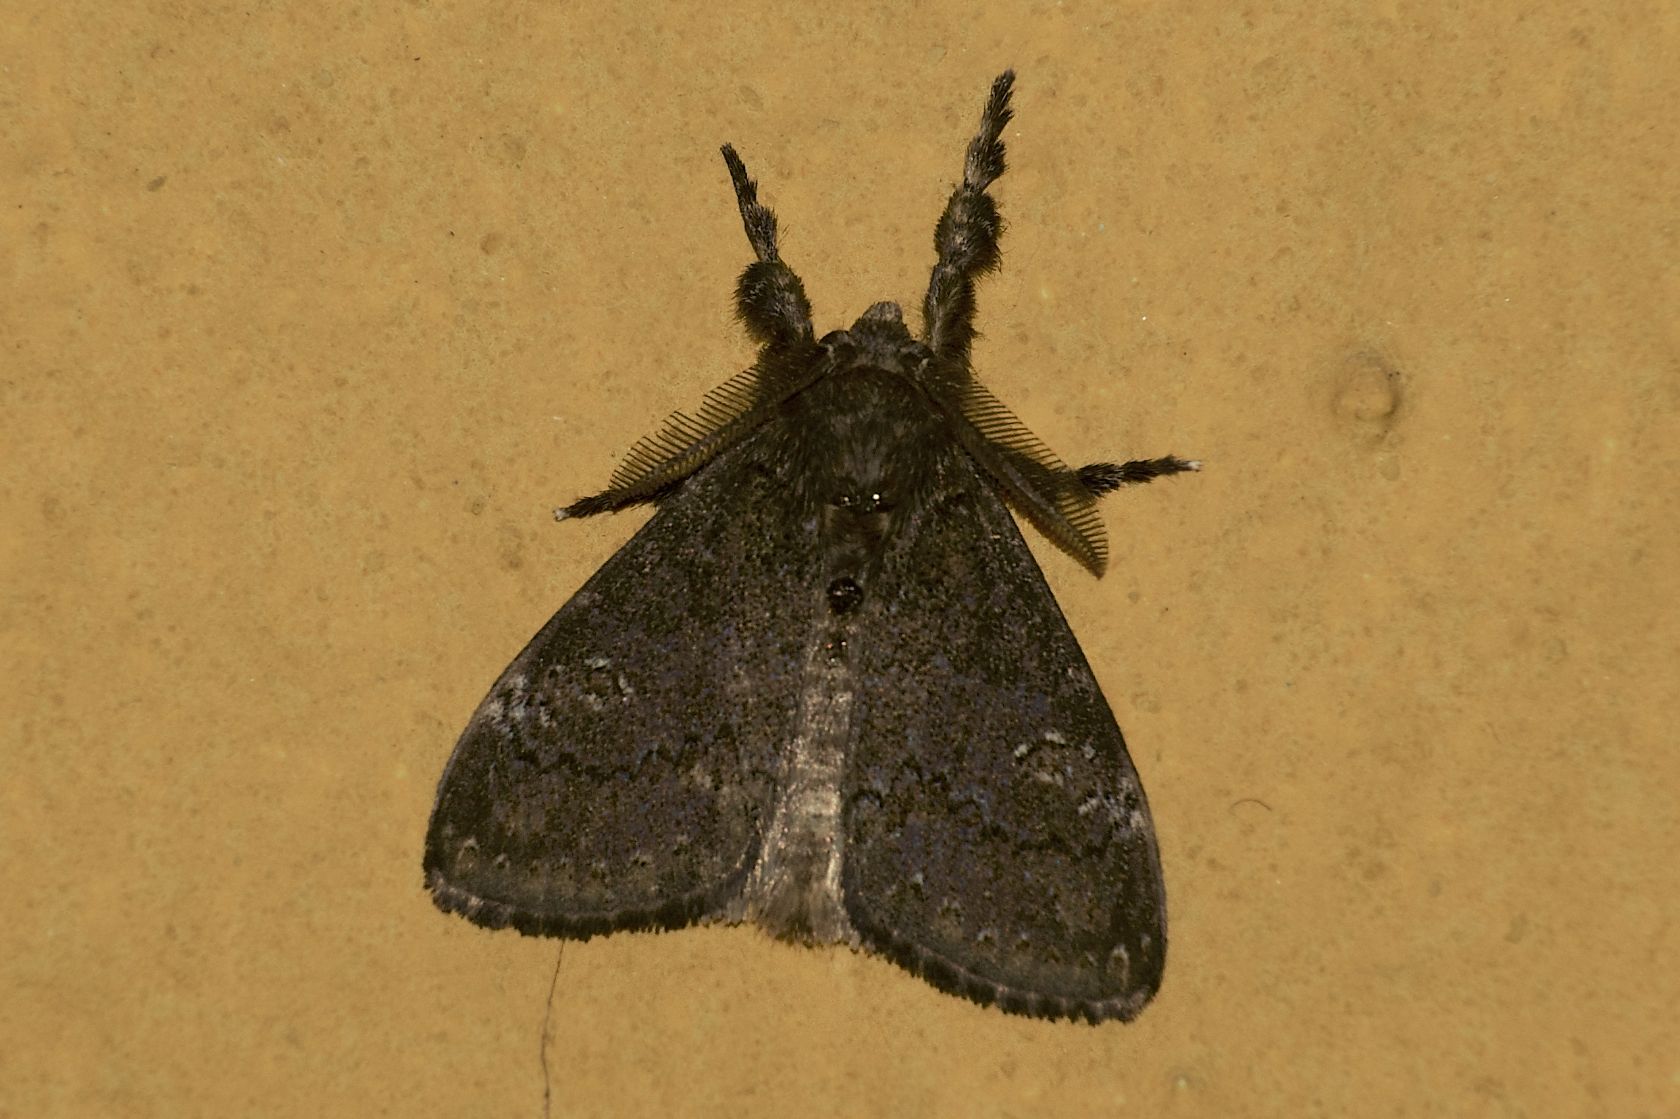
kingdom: Animalia
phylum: Arthropoda
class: Insecta
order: Lepidoptera
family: Erebidae
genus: Dasychira
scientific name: Dasychira chekiangensis
